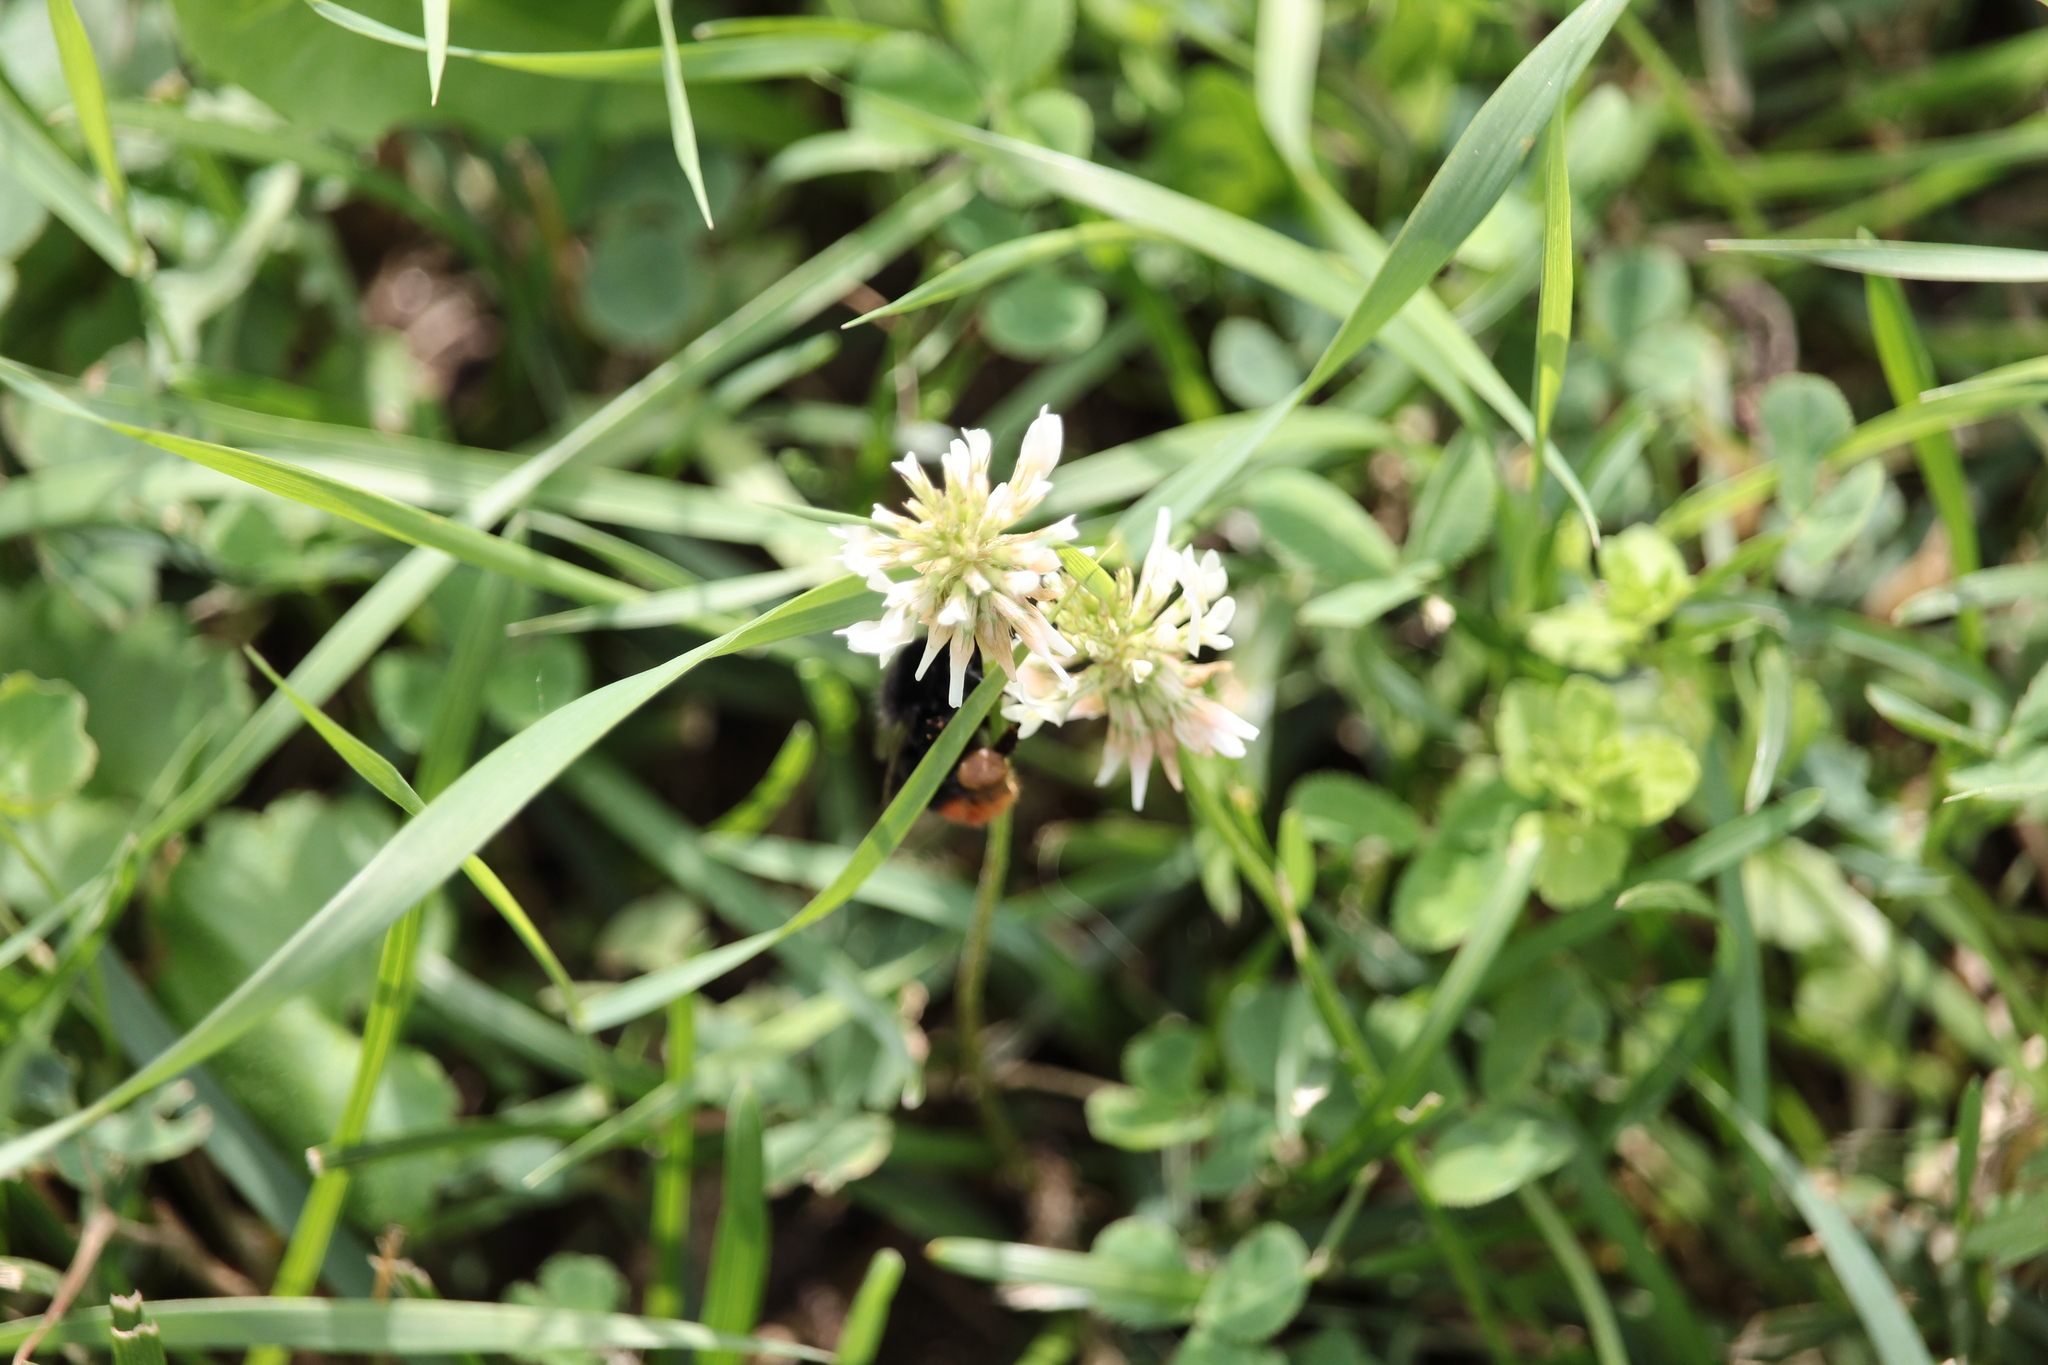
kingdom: Animalia
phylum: Arthropoda
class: Insecta
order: Hymenoptera
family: Apidae
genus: Bombus
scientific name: Bombus lapidarius
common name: Large red-tailed humble-bee
